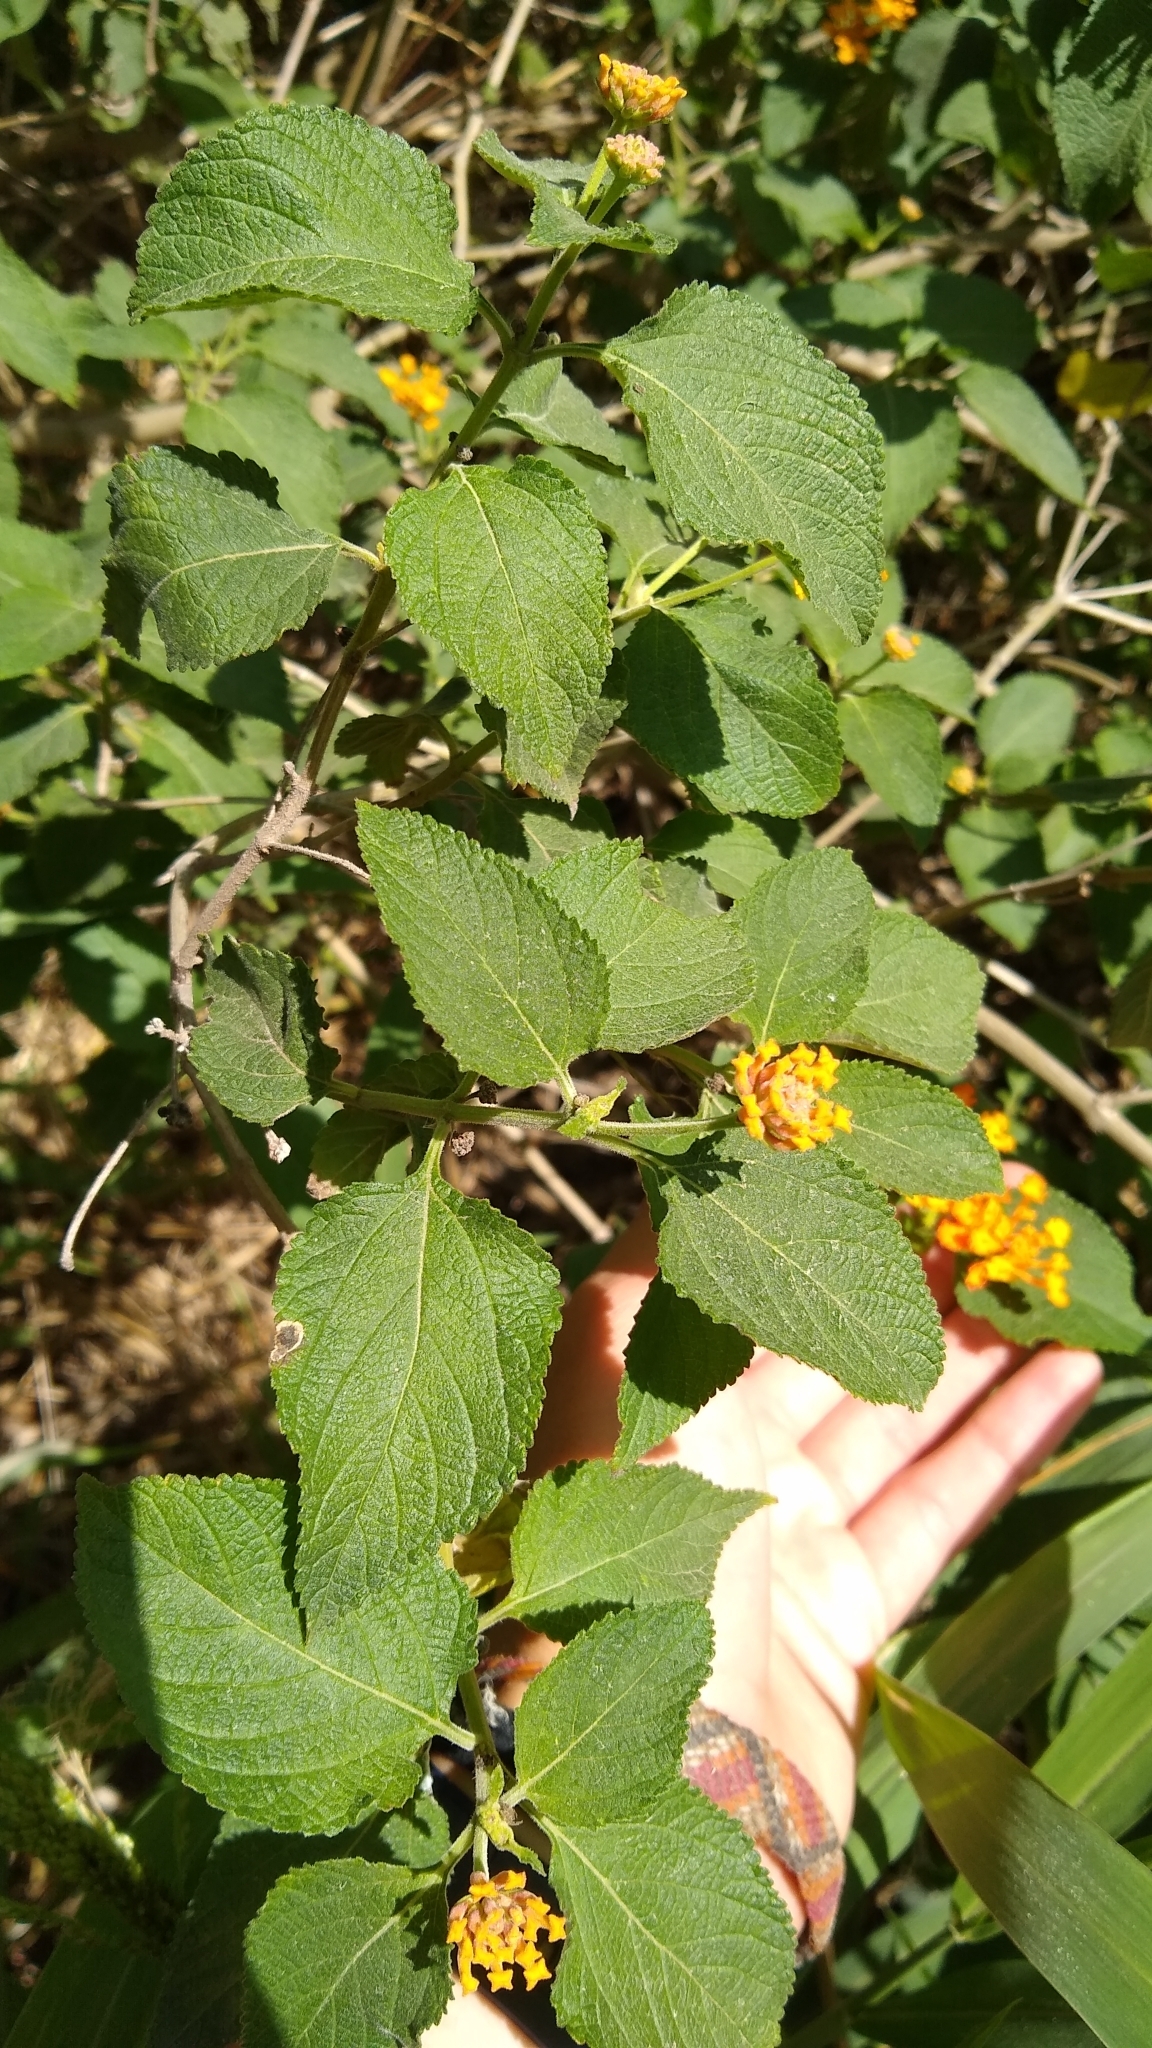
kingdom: Plantae
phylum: Tracheophyta
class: Magnoliopsida
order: Lamiales
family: Verbenaceae
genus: Lantana
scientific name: Lantana camara
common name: Lantana
